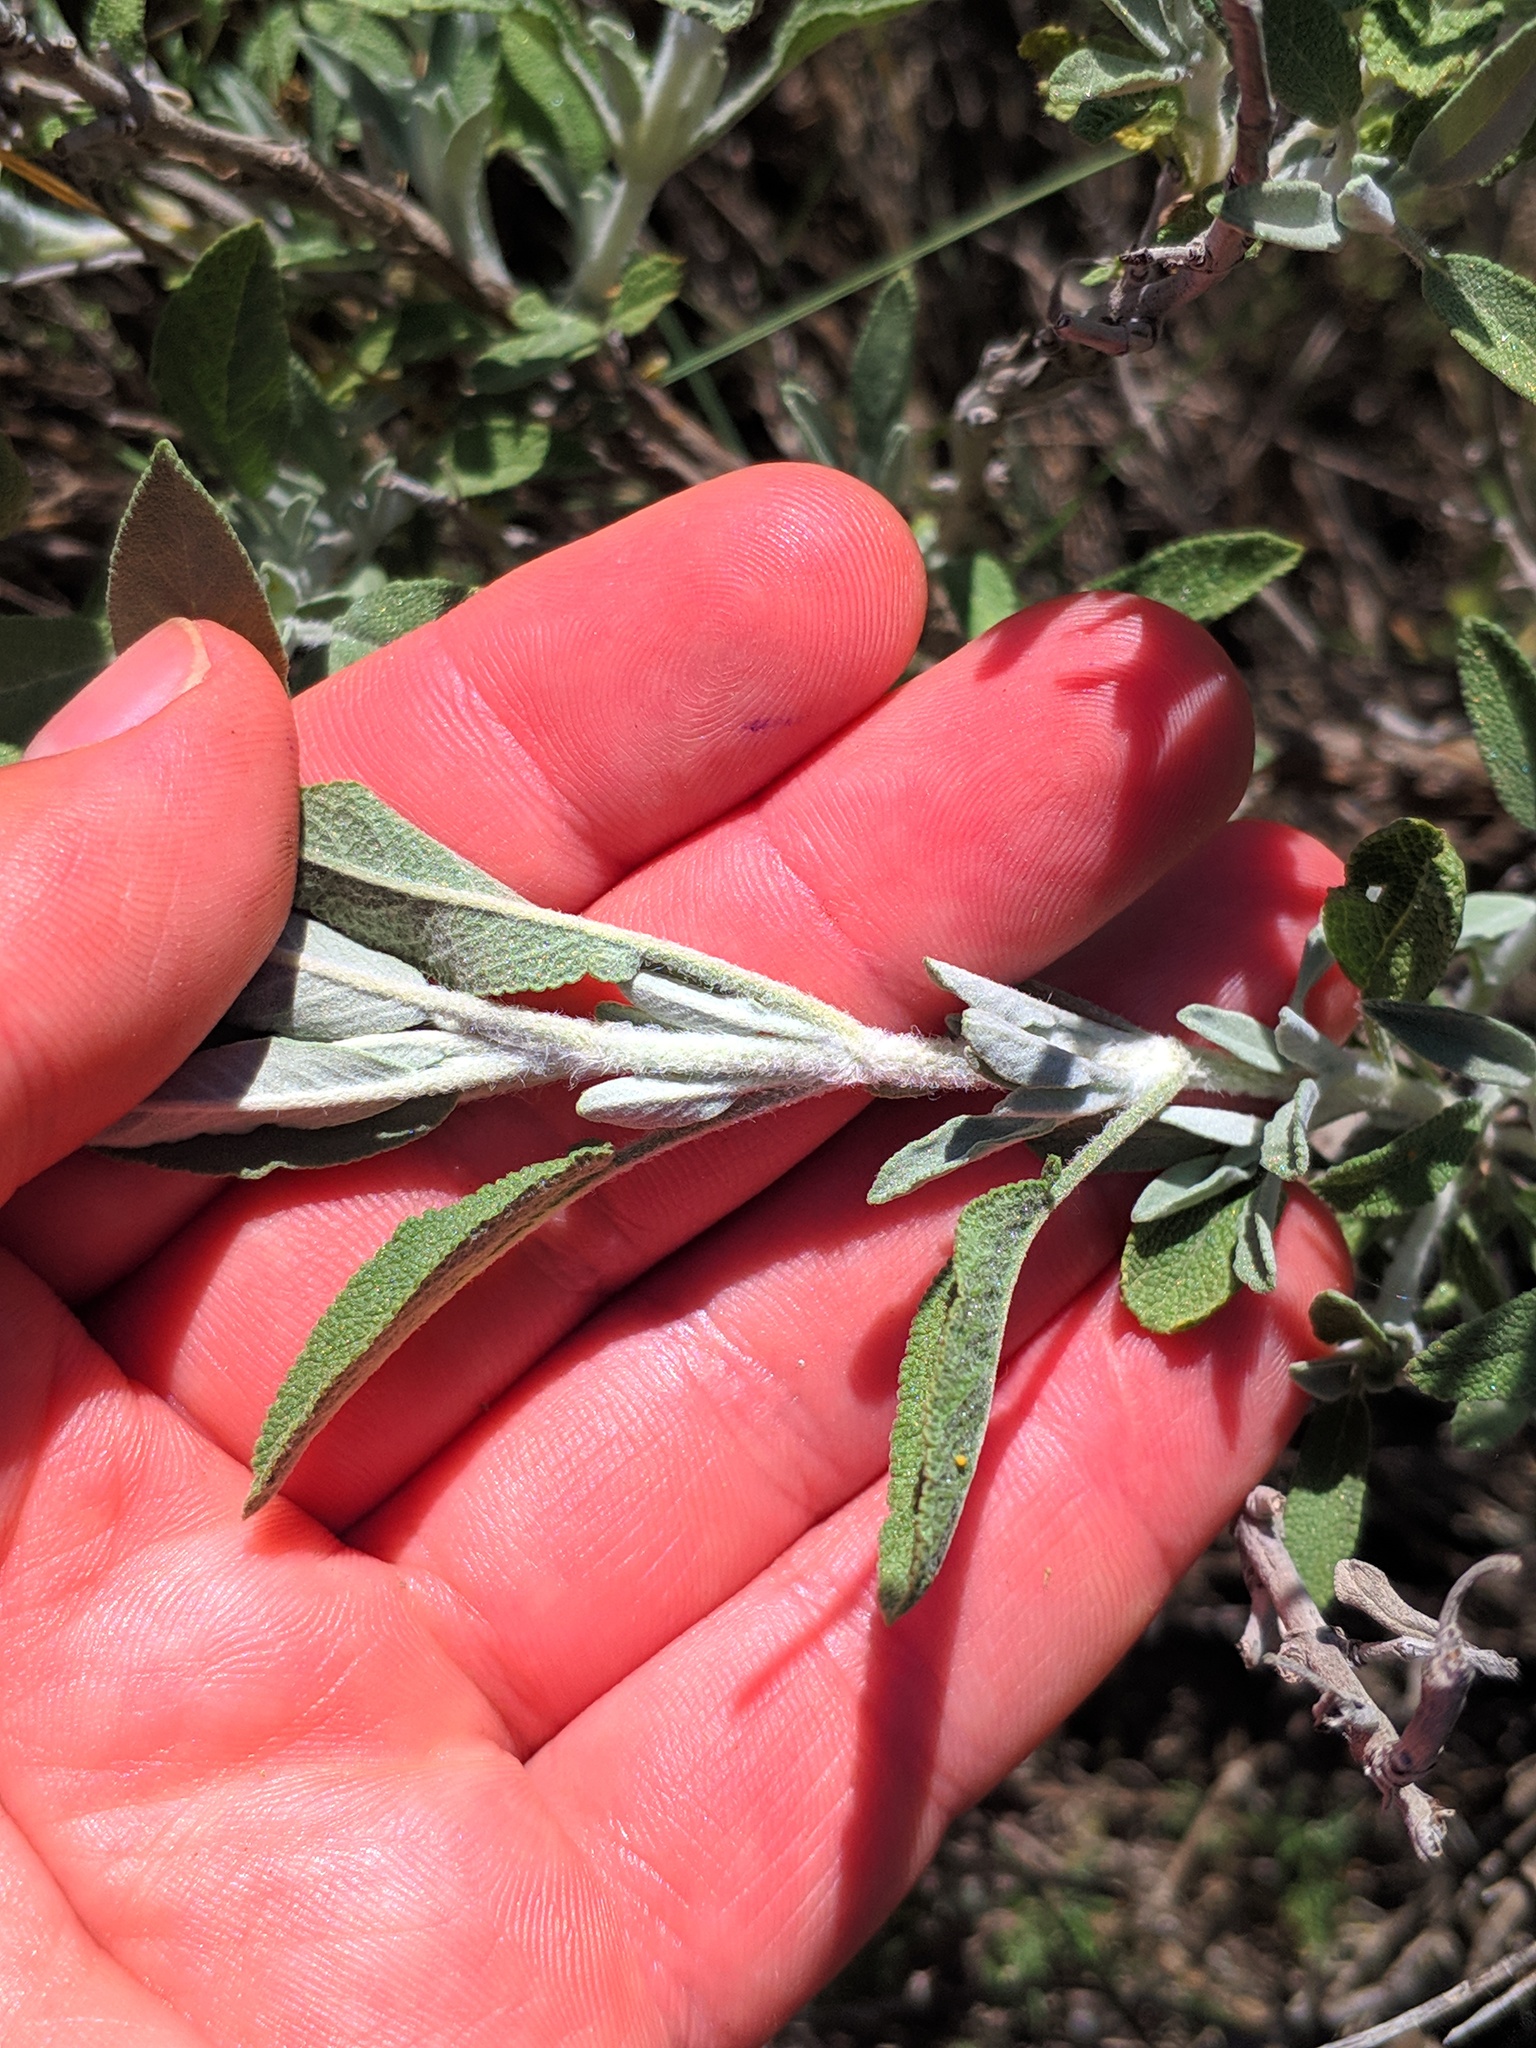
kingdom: Plantae
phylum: Tracheophyta
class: Magnoliopsida
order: Lamiales
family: Lamiaceae
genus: Salvia
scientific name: Salvia officinalis
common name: Sage
